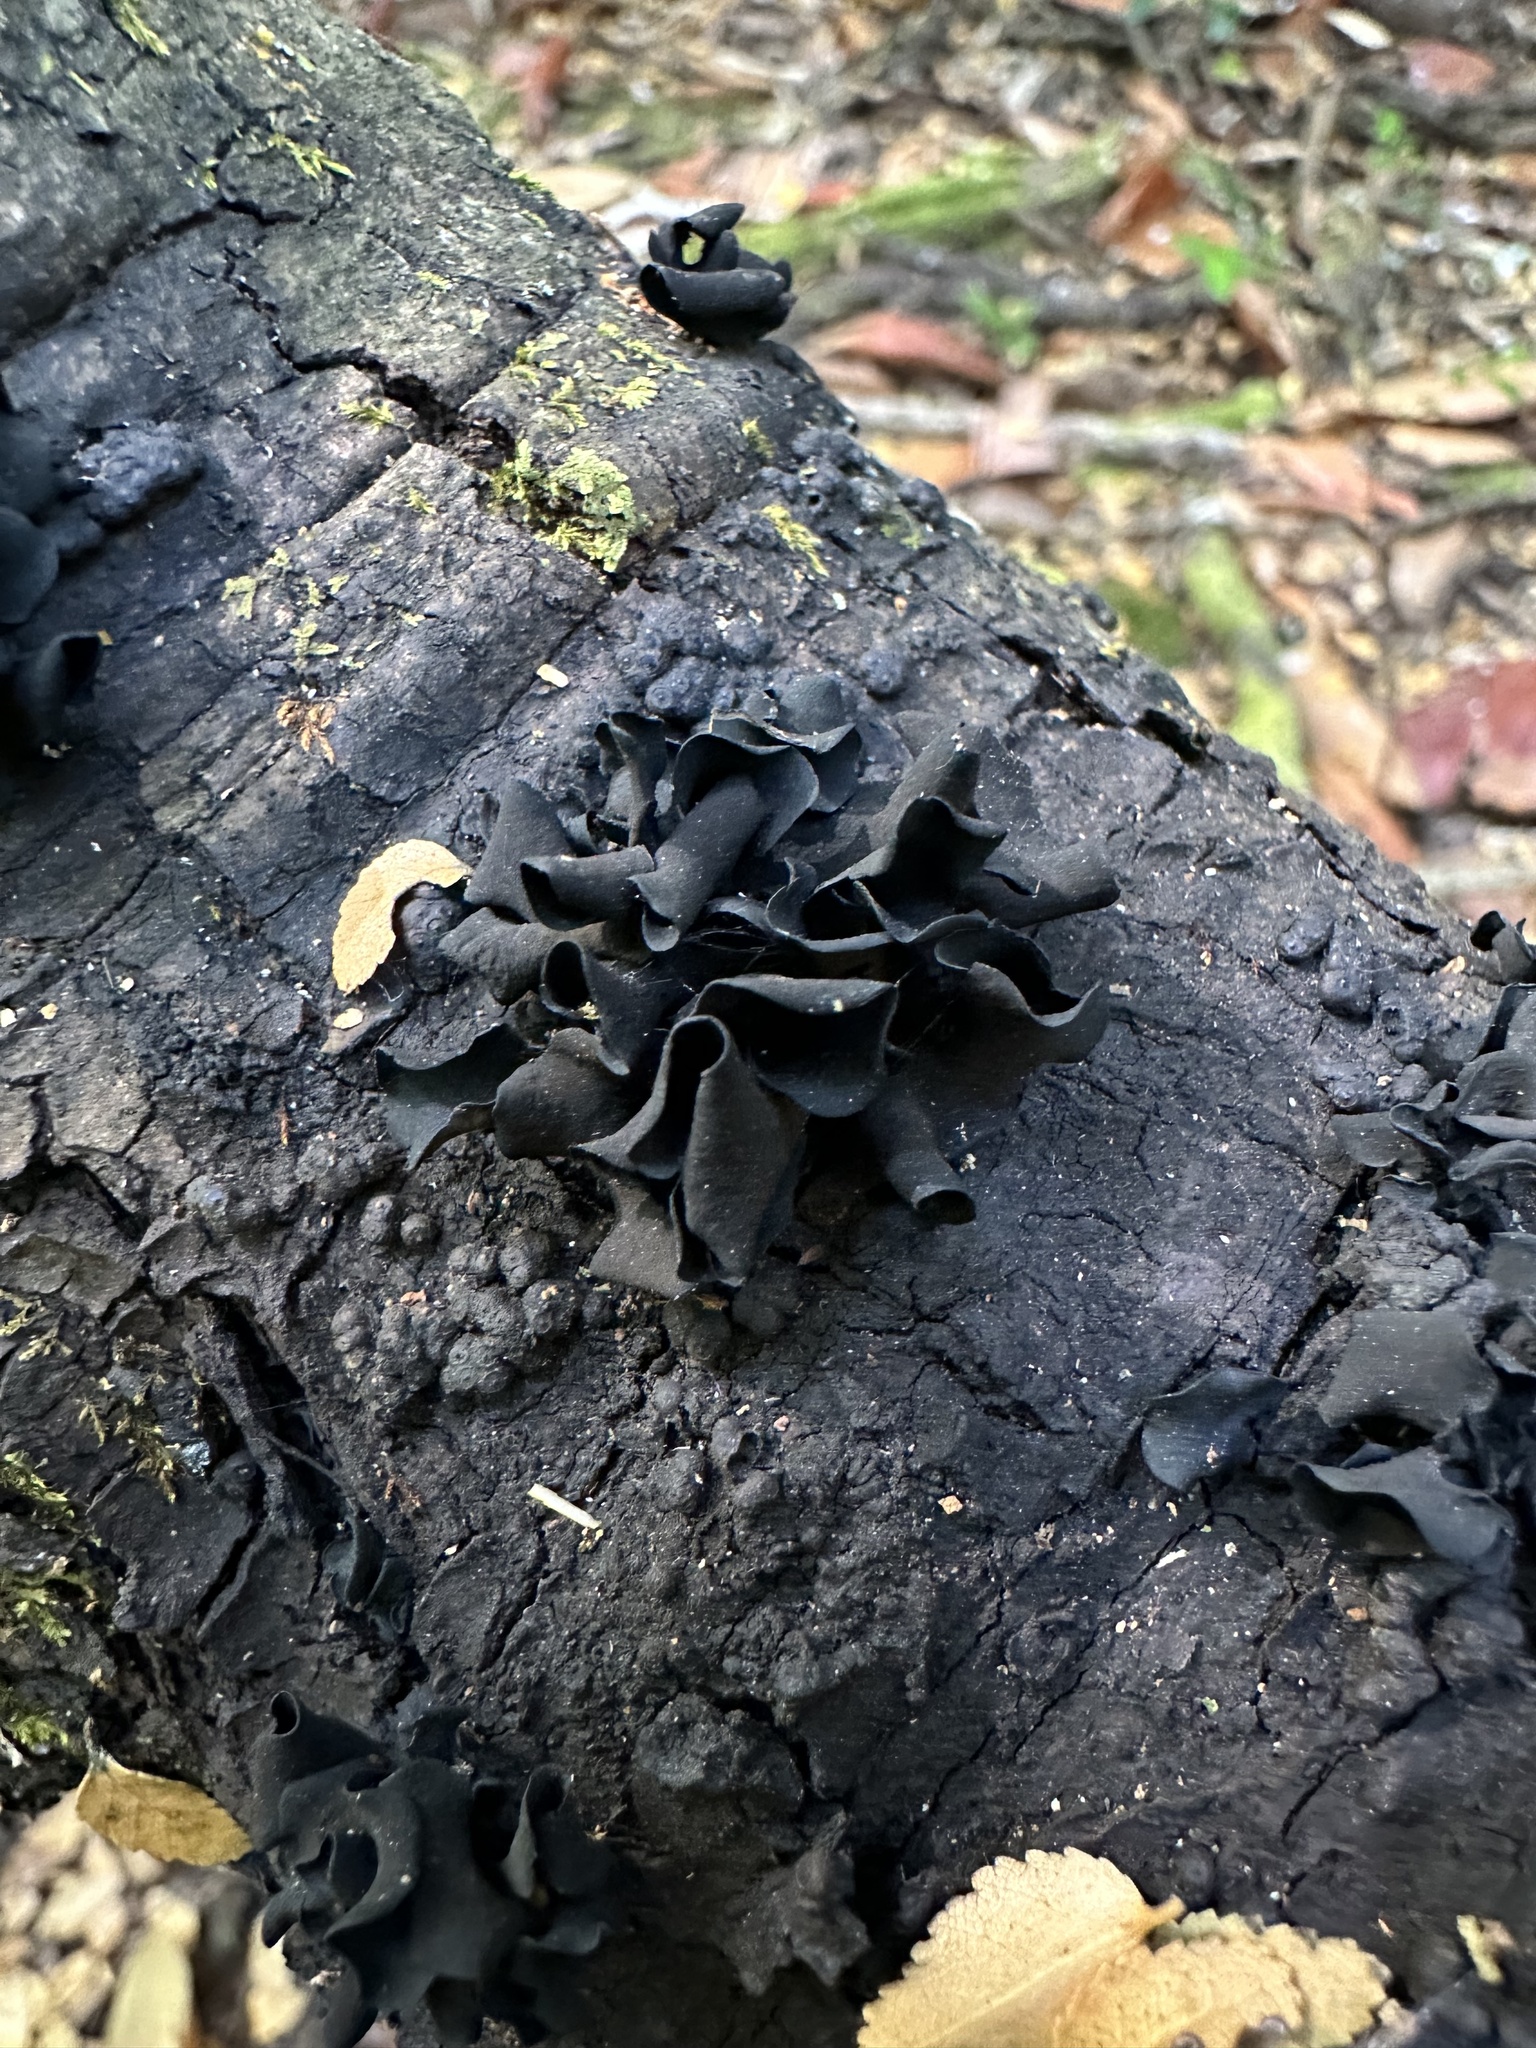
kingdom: Fungi
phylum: Ascomycota
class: Leotiomycetes
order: Helotiales
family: Cordieritidaceae
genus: Ameghiniella
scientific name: Ameghiniella australis
